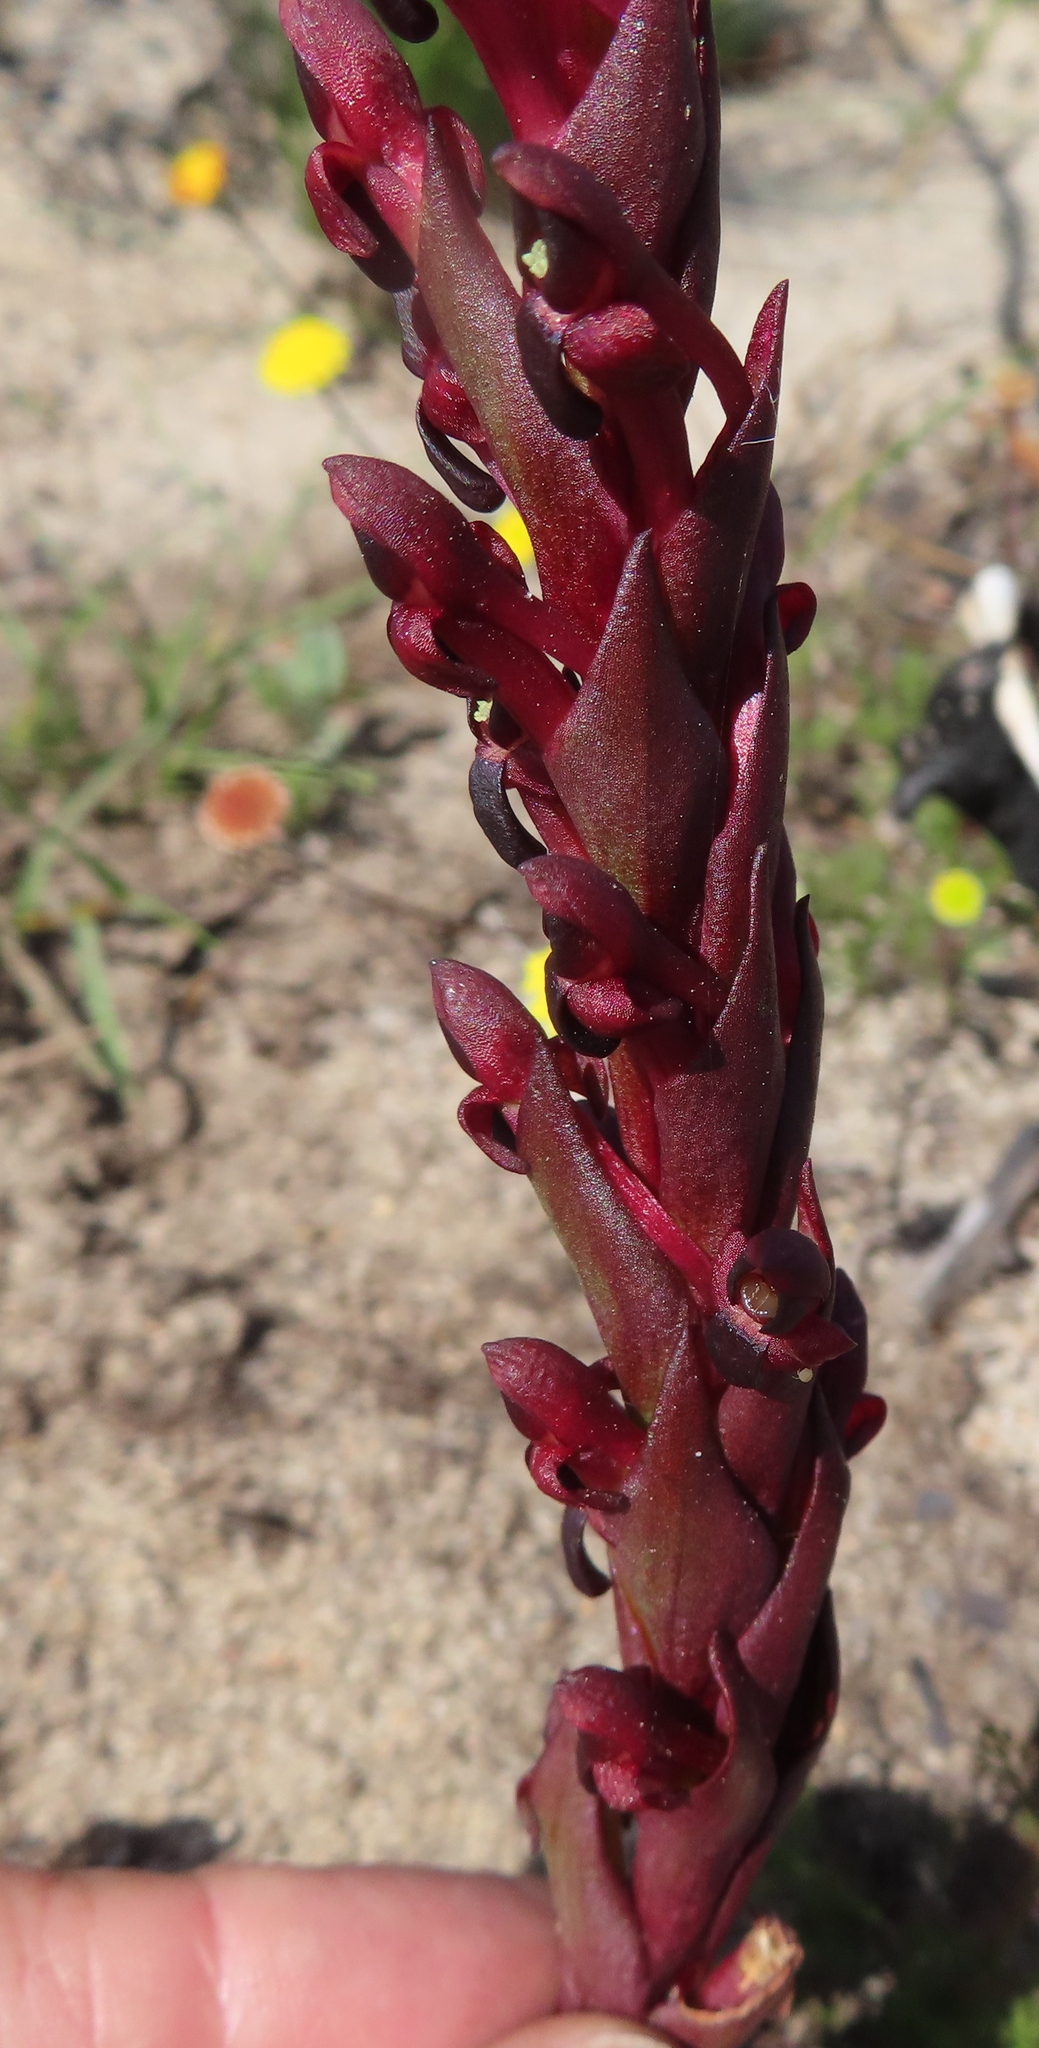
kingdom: Plantae
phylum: Tracheophyta
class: Liliopsida
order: Asparagales
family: Orchidaceae
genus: Disa
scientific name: Disa atrorubens
